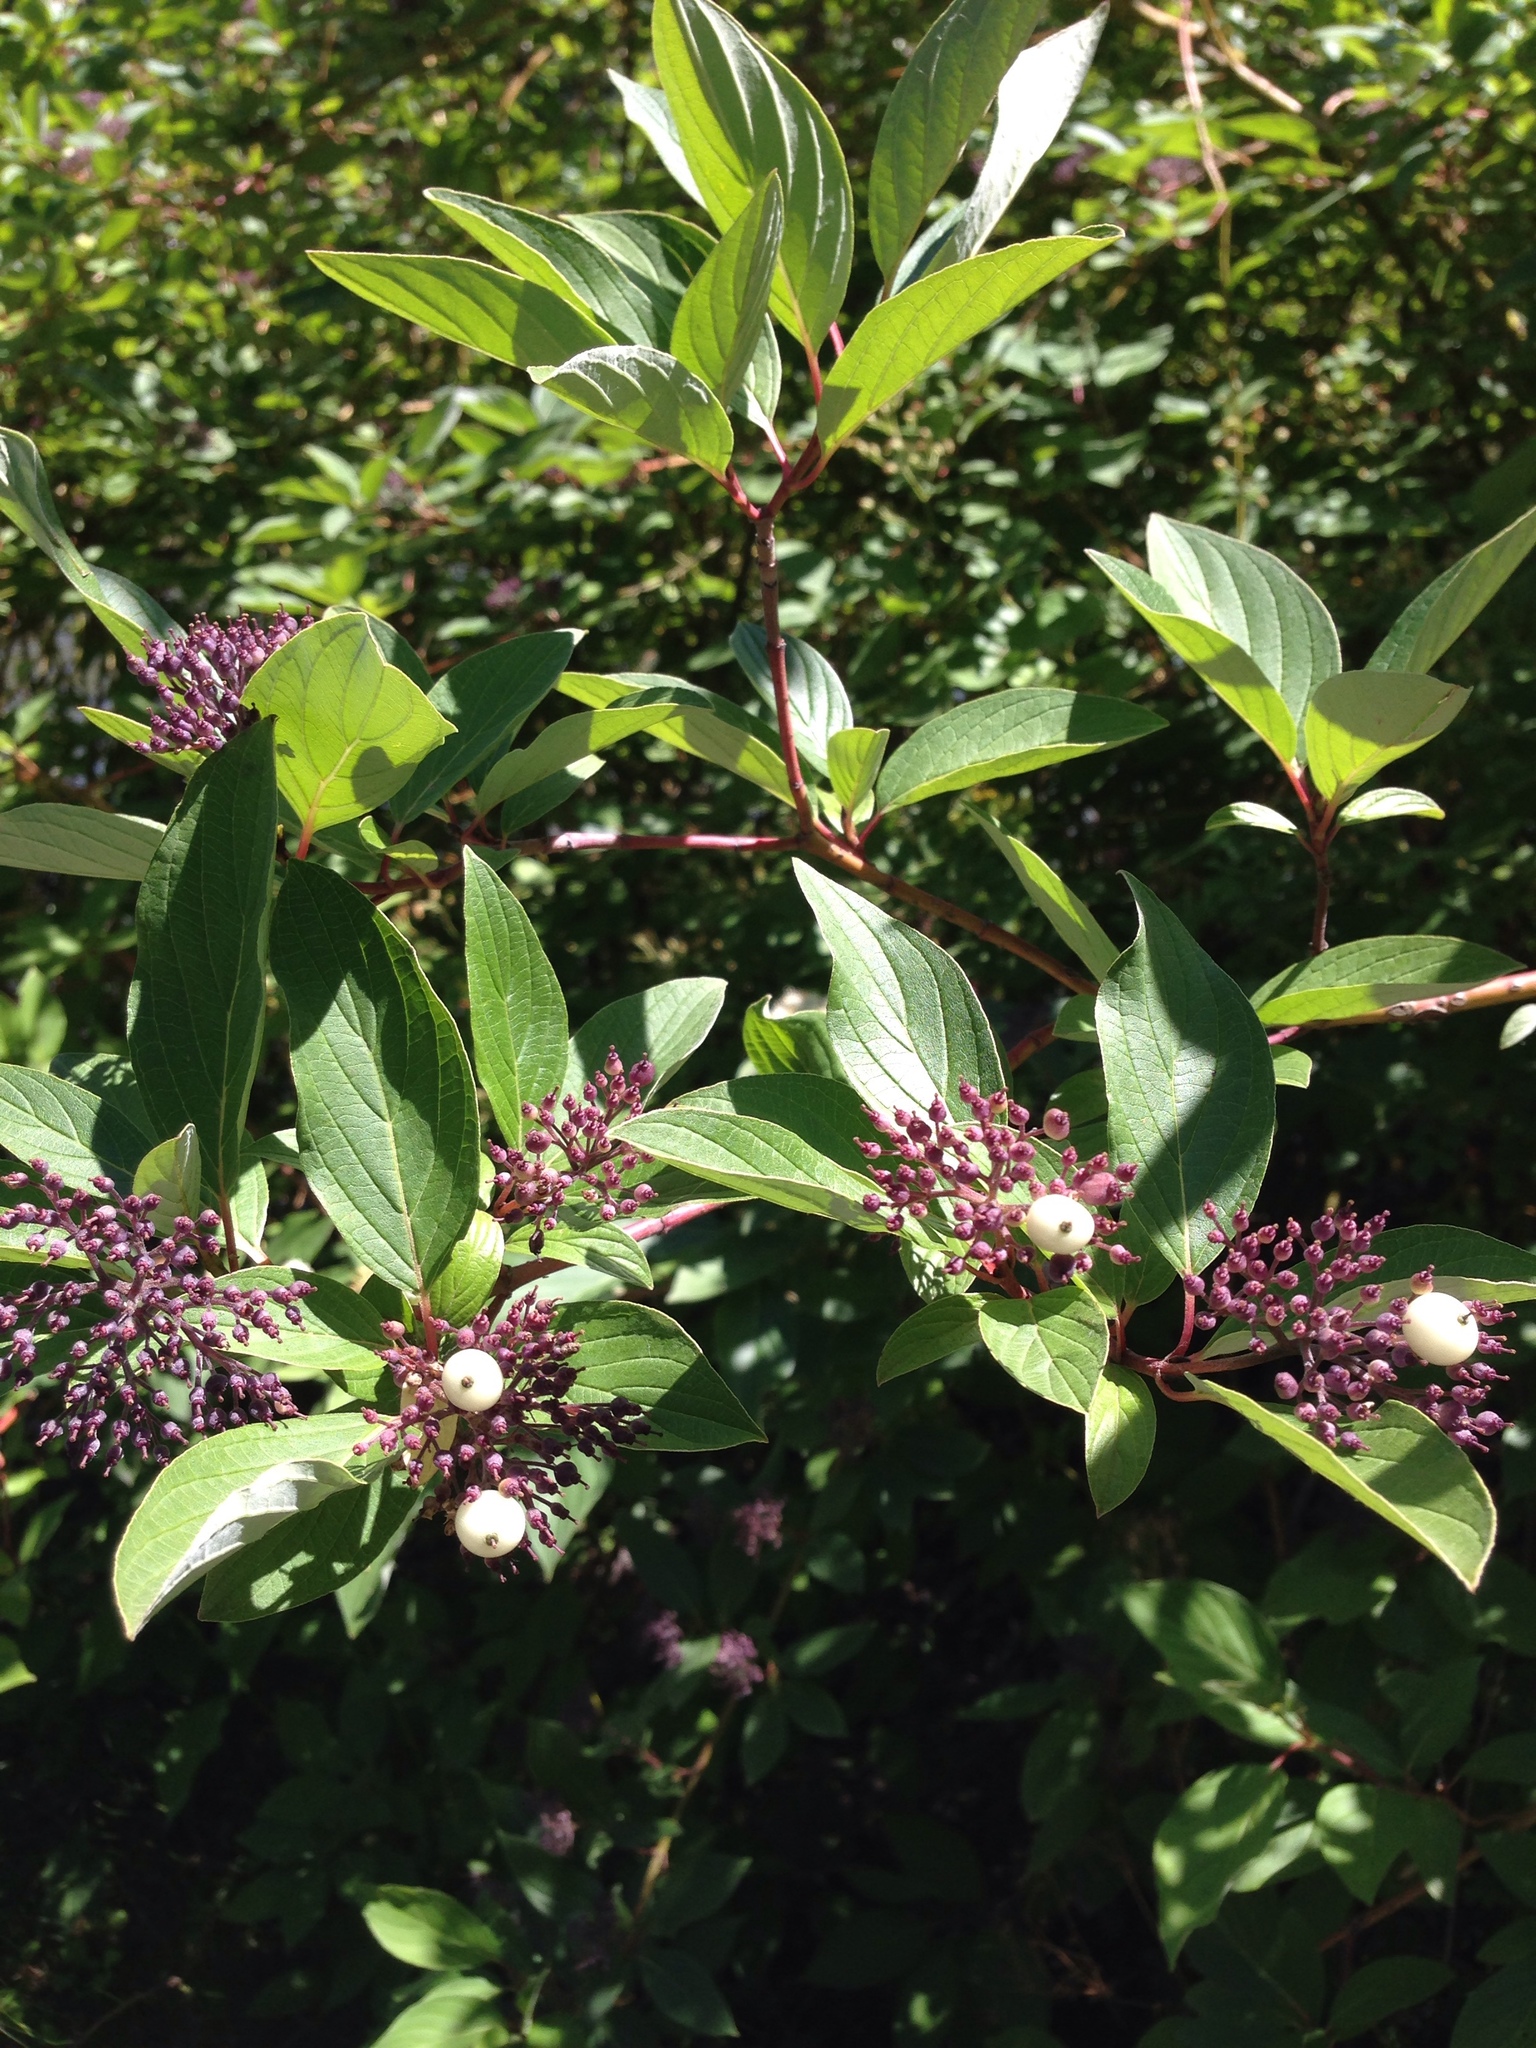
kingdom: Plantae
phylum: Tracheophyta
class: Magnoliopsida
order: Cornales
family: Cornaceae
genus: Cornus
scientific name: Cornus sericea
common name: Red-osier dogwood
